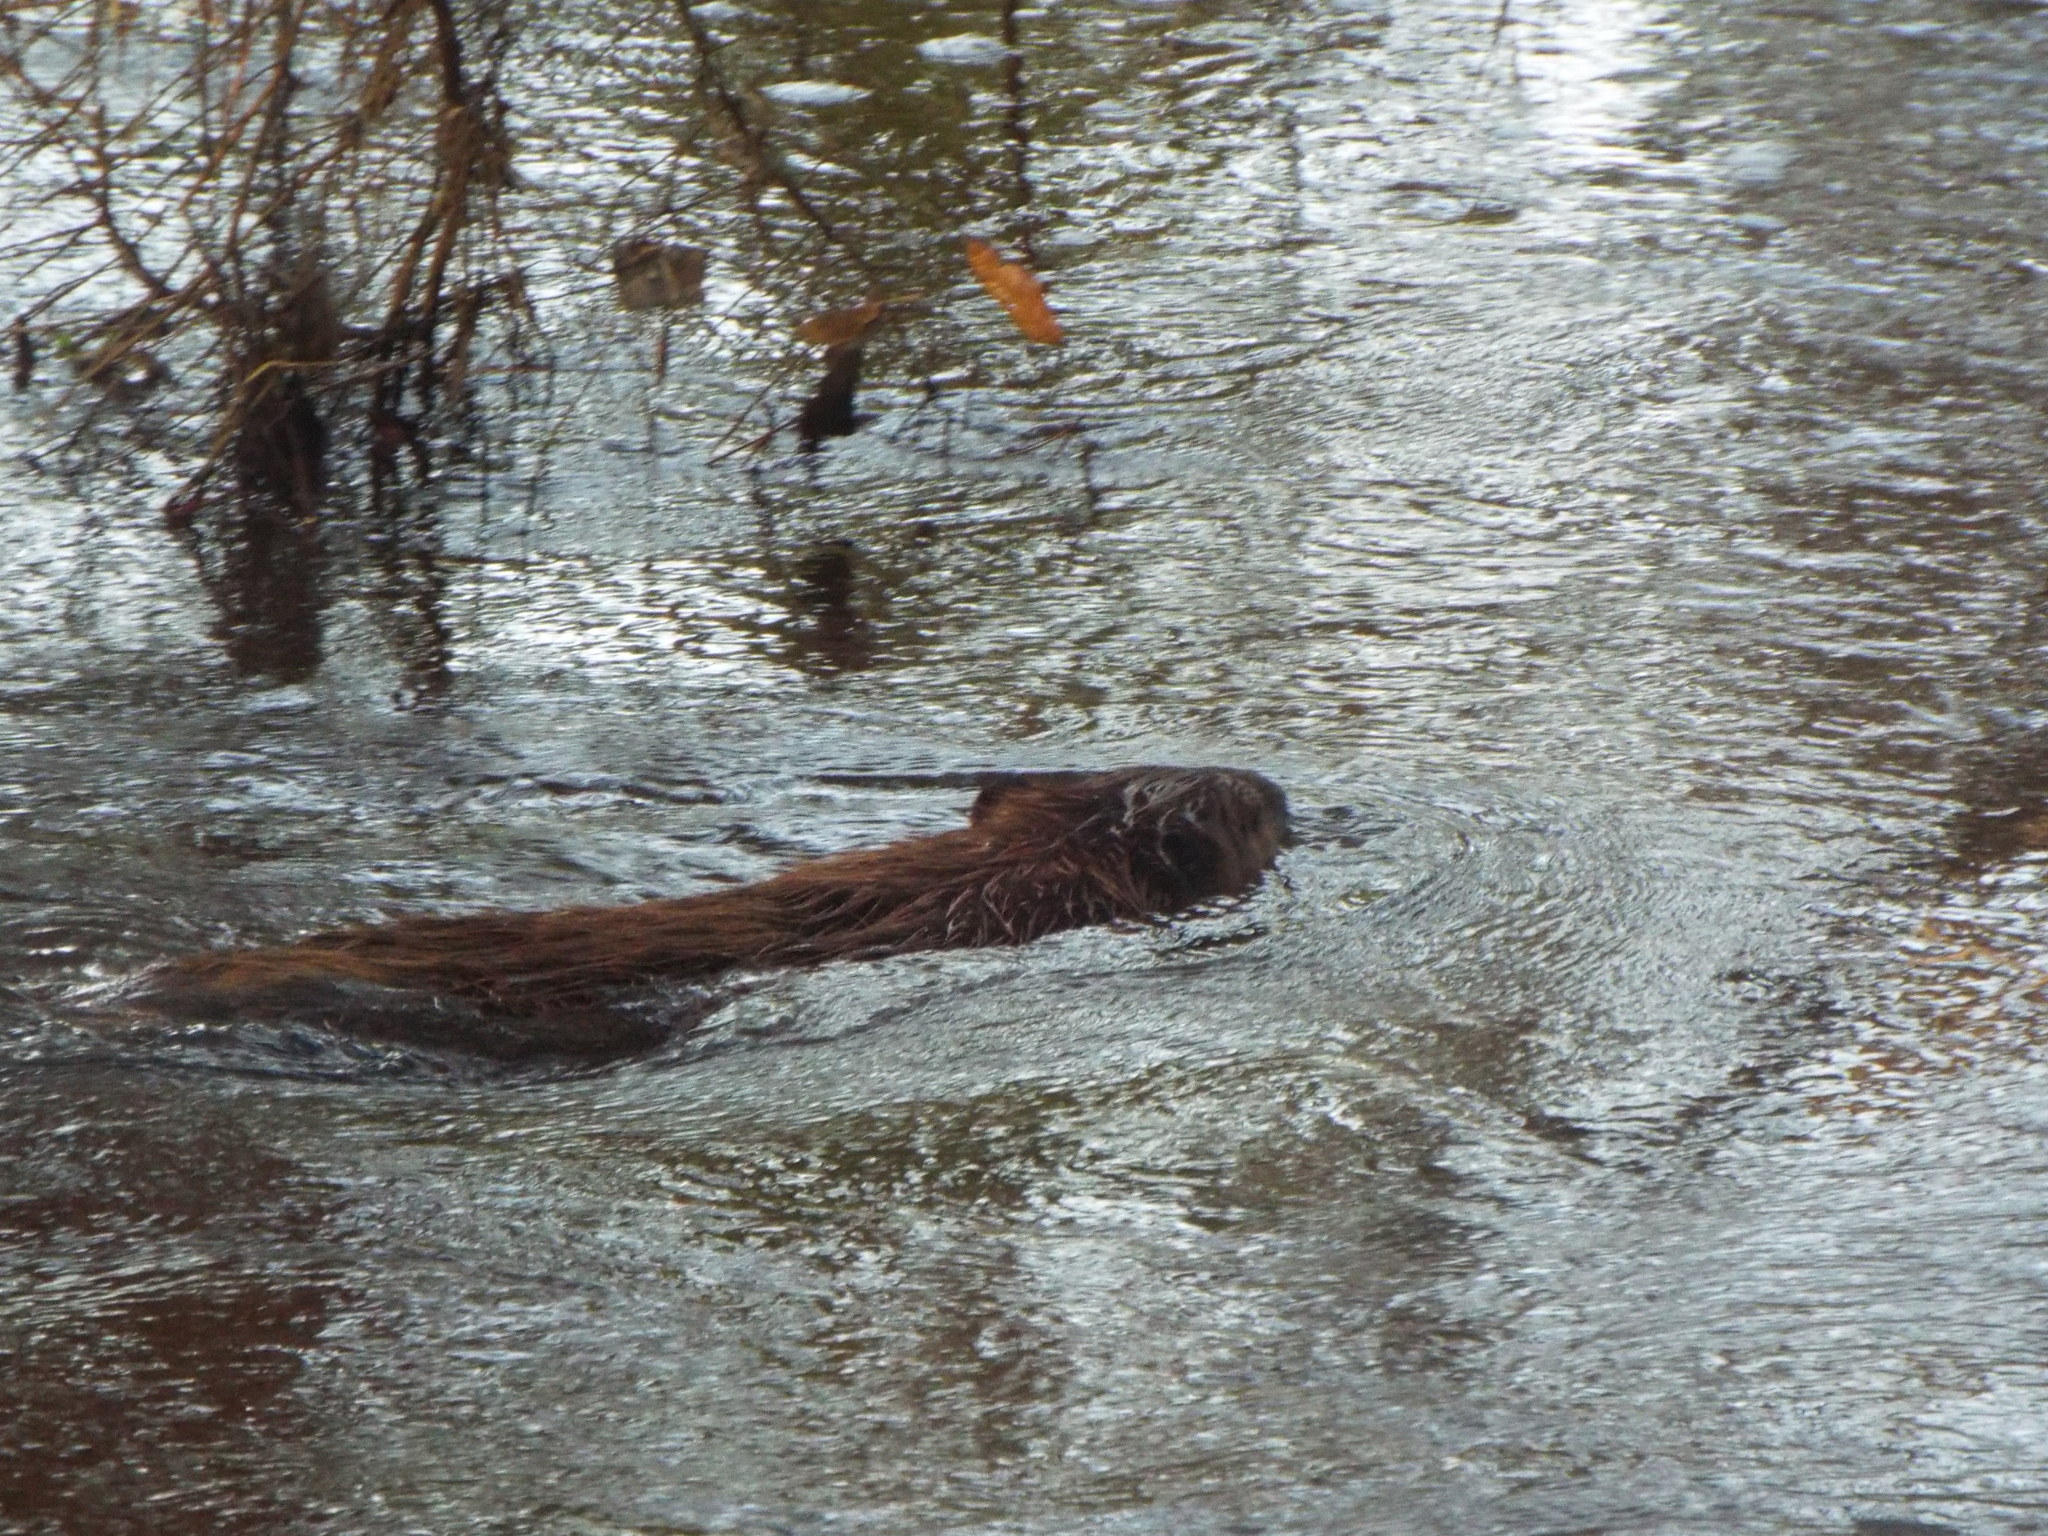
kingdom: Animalia
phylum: Chordata
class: Mammalia
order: Rodentia
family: Castoridae
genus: Castor
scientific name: Castor canadensis
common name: American beaver
